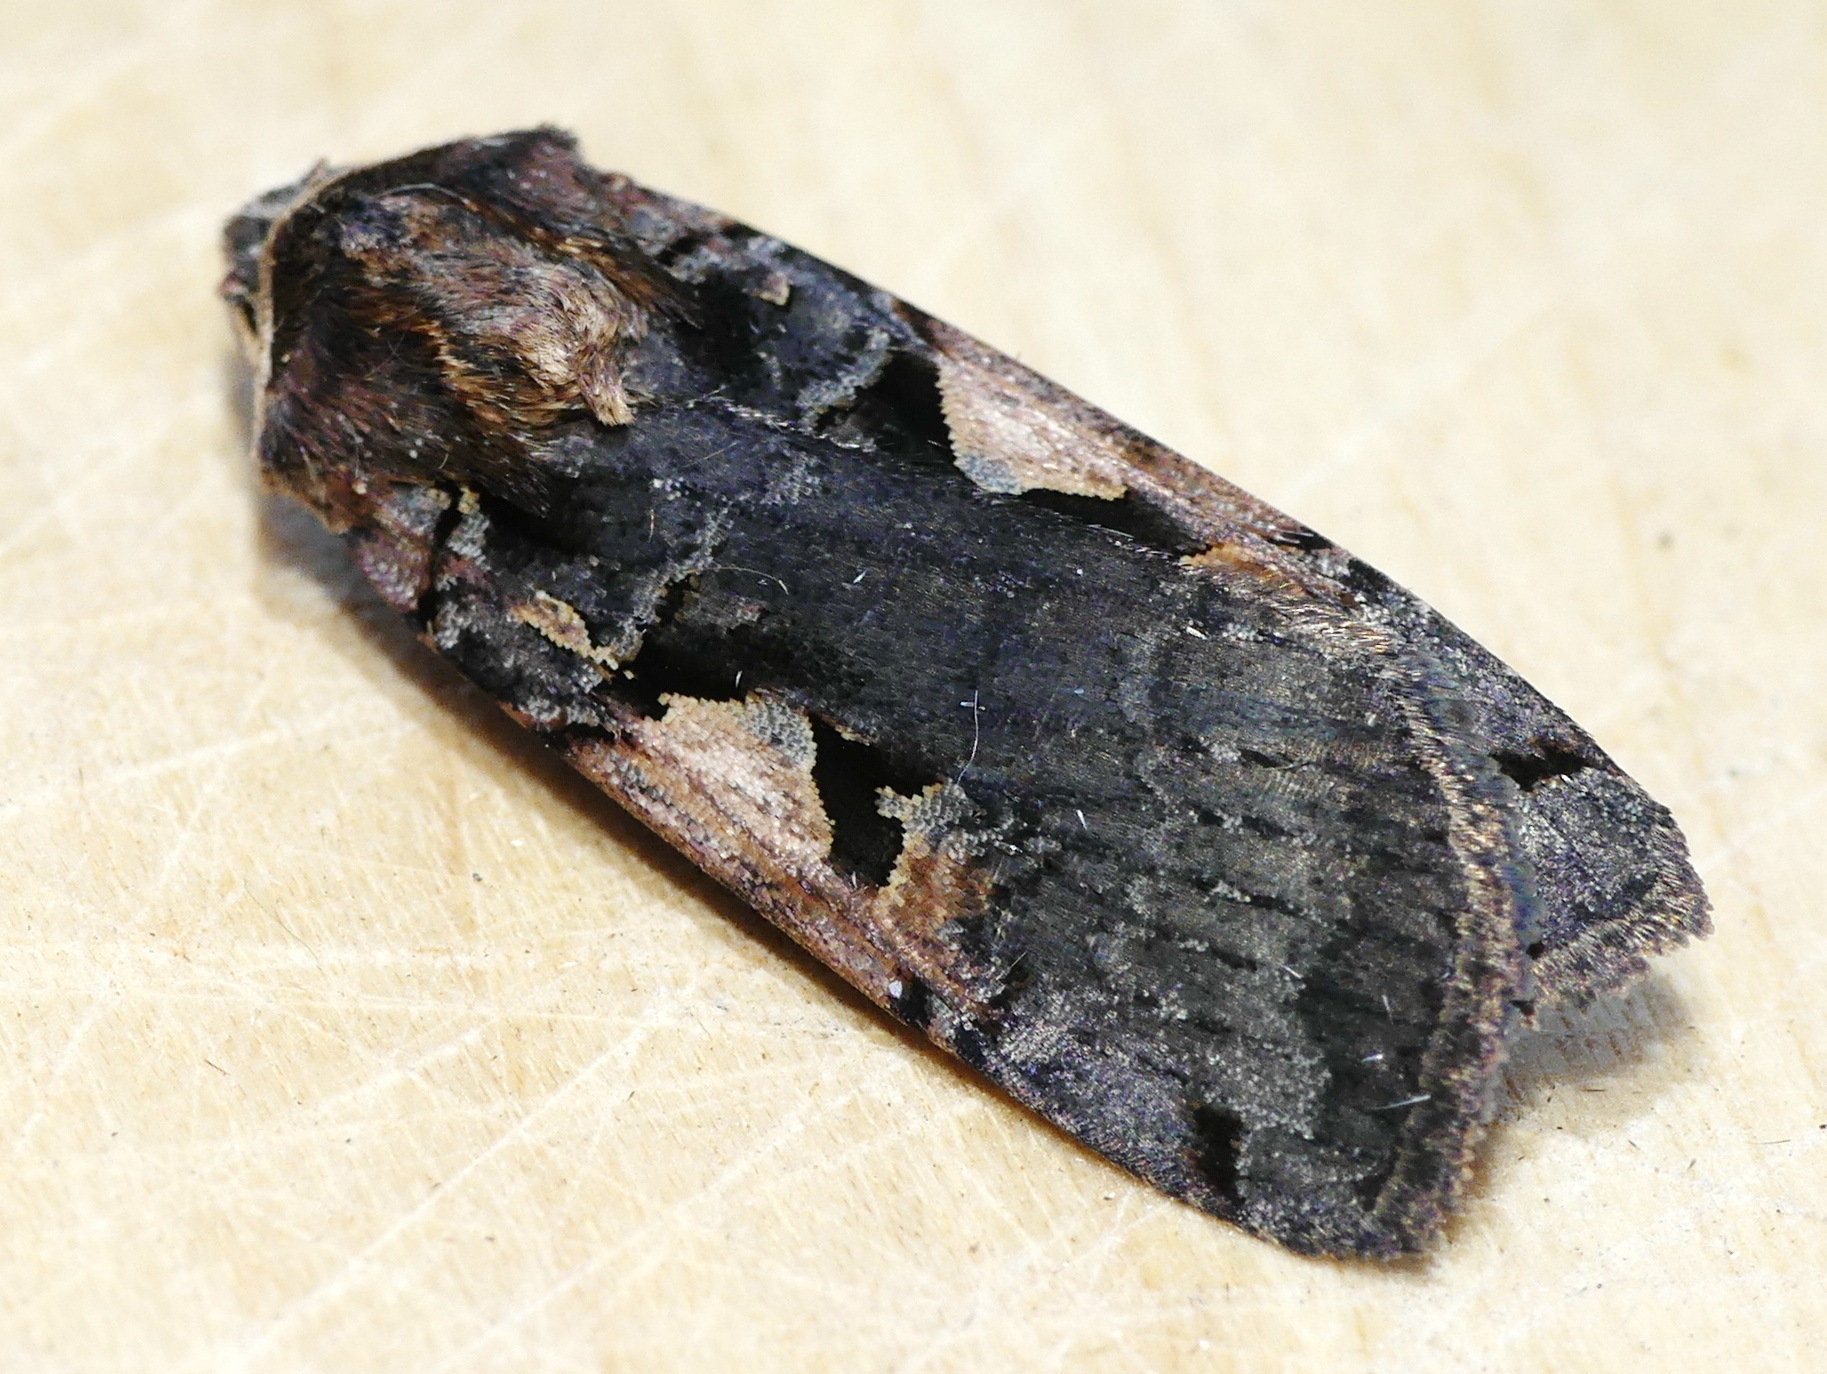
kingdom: Animalia
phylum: Arthropoda
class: Insecta
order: Lepidoptera
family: Noctuidae
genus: Xestia
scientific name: Xestia
